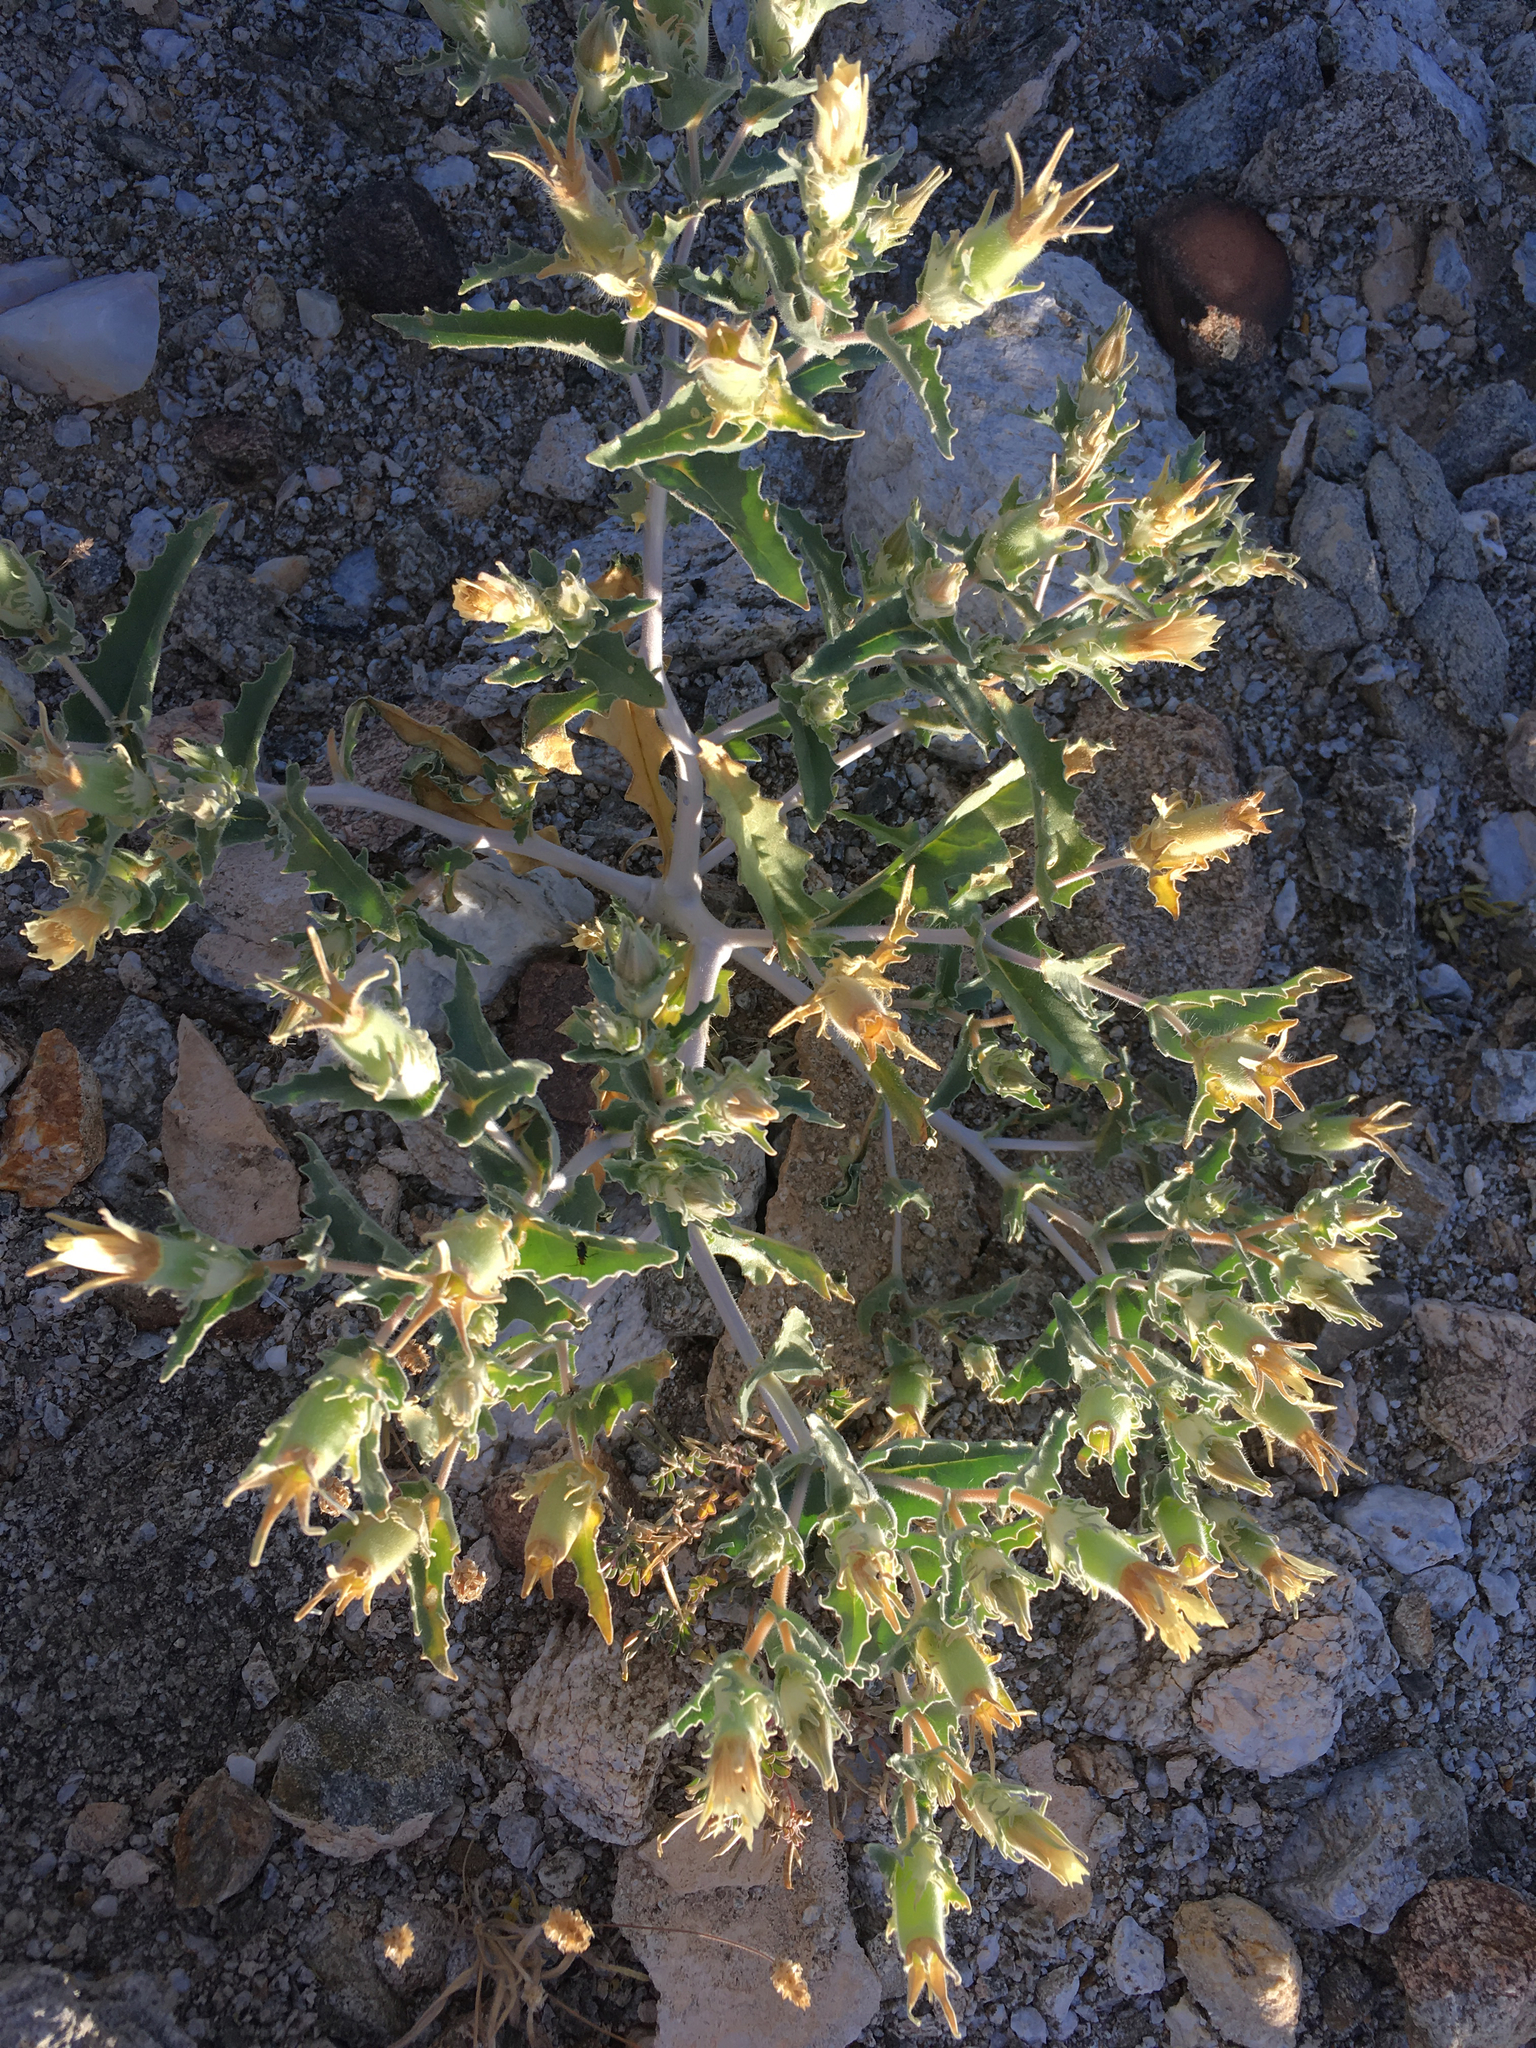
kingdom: Plantae
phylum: Tracheophyta
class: Magnoliopsida
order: Cornales
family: Loasaceae
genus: Mentzelia
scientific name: Mentzelia involucrata
